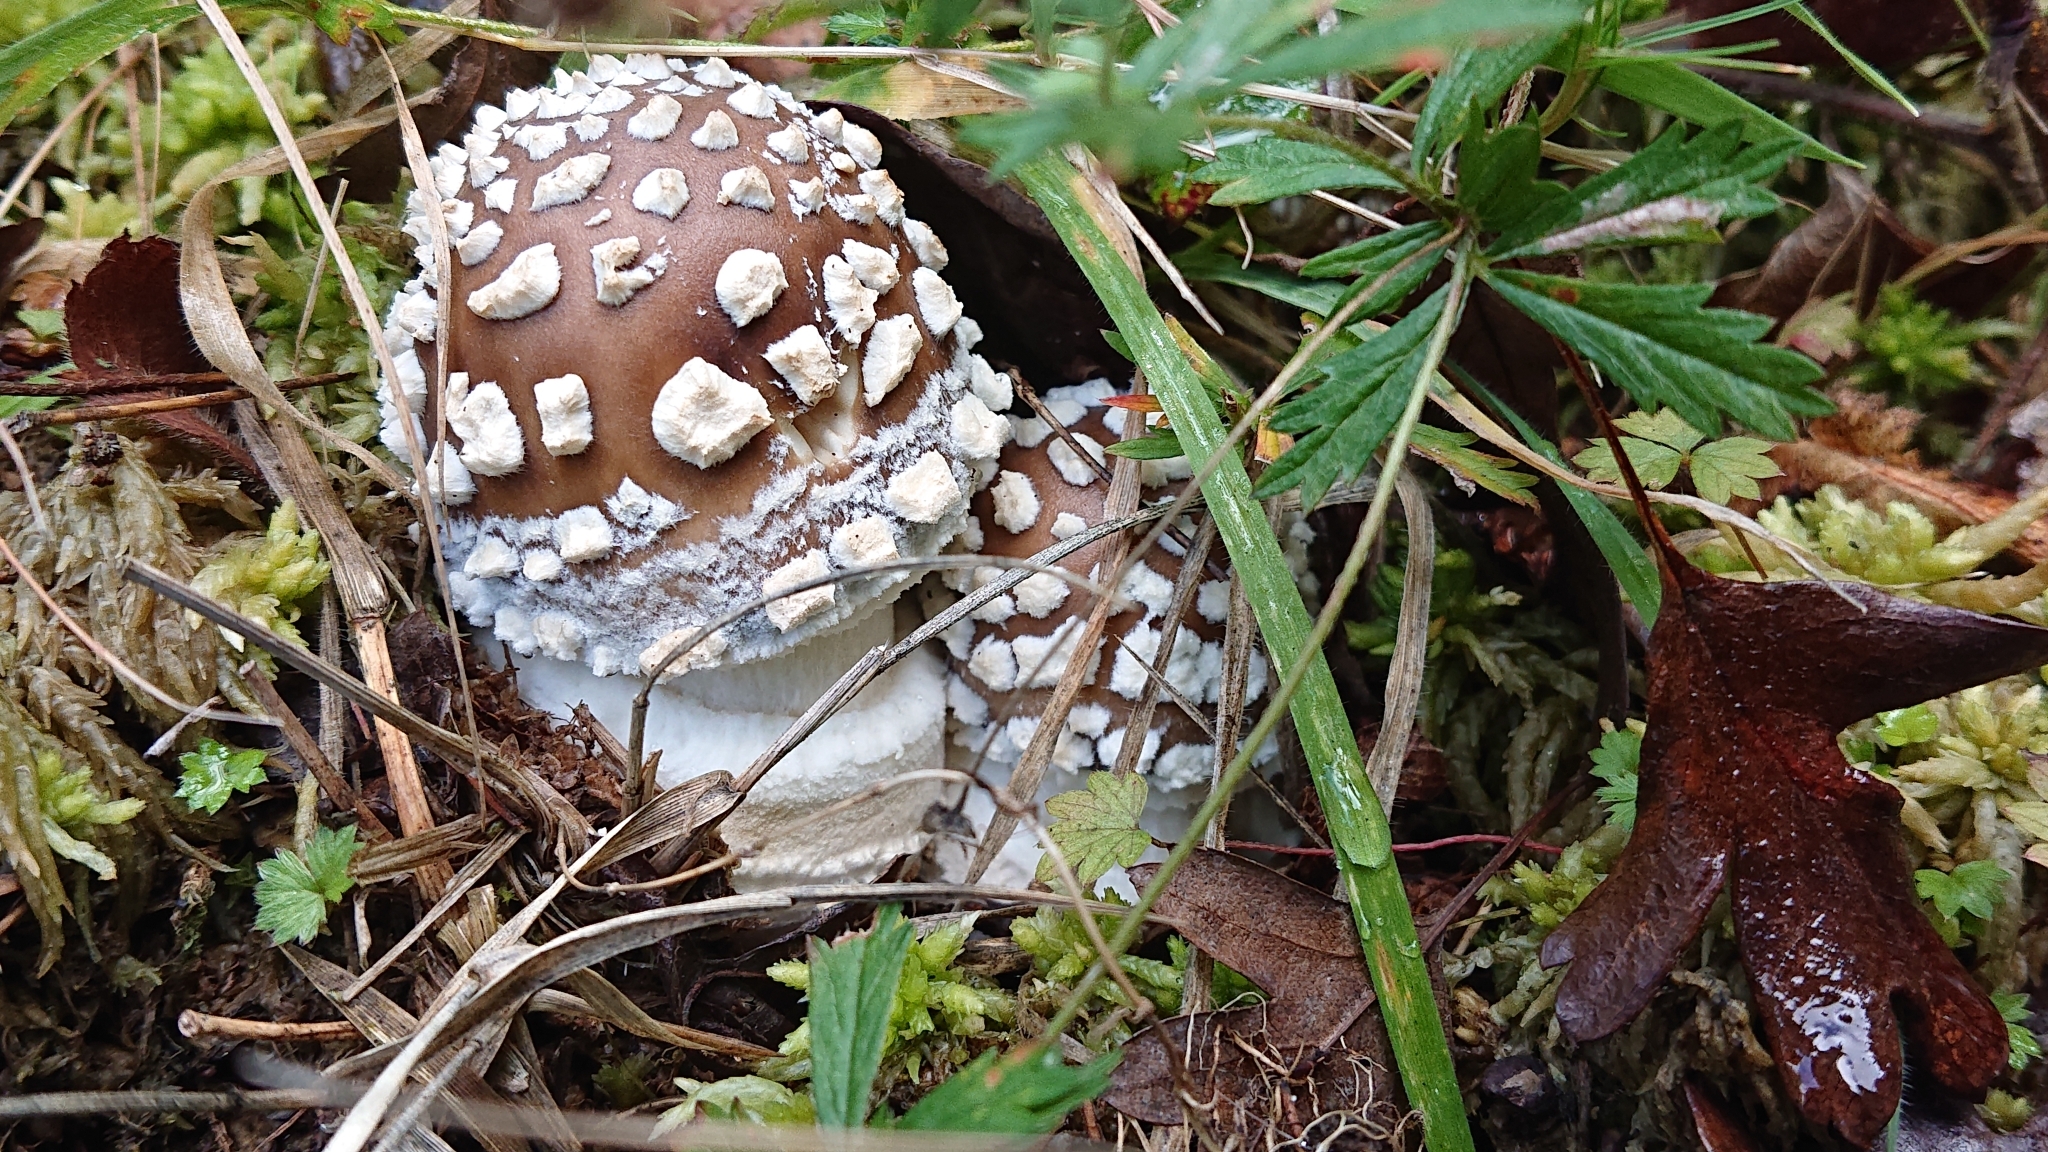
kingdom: Fungi
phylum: Basidiomycota
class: Agaricomycetes
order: Agaricales
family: Amanitaceae
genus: Amanita
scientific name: Amanita pantherina
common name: Panthercap
